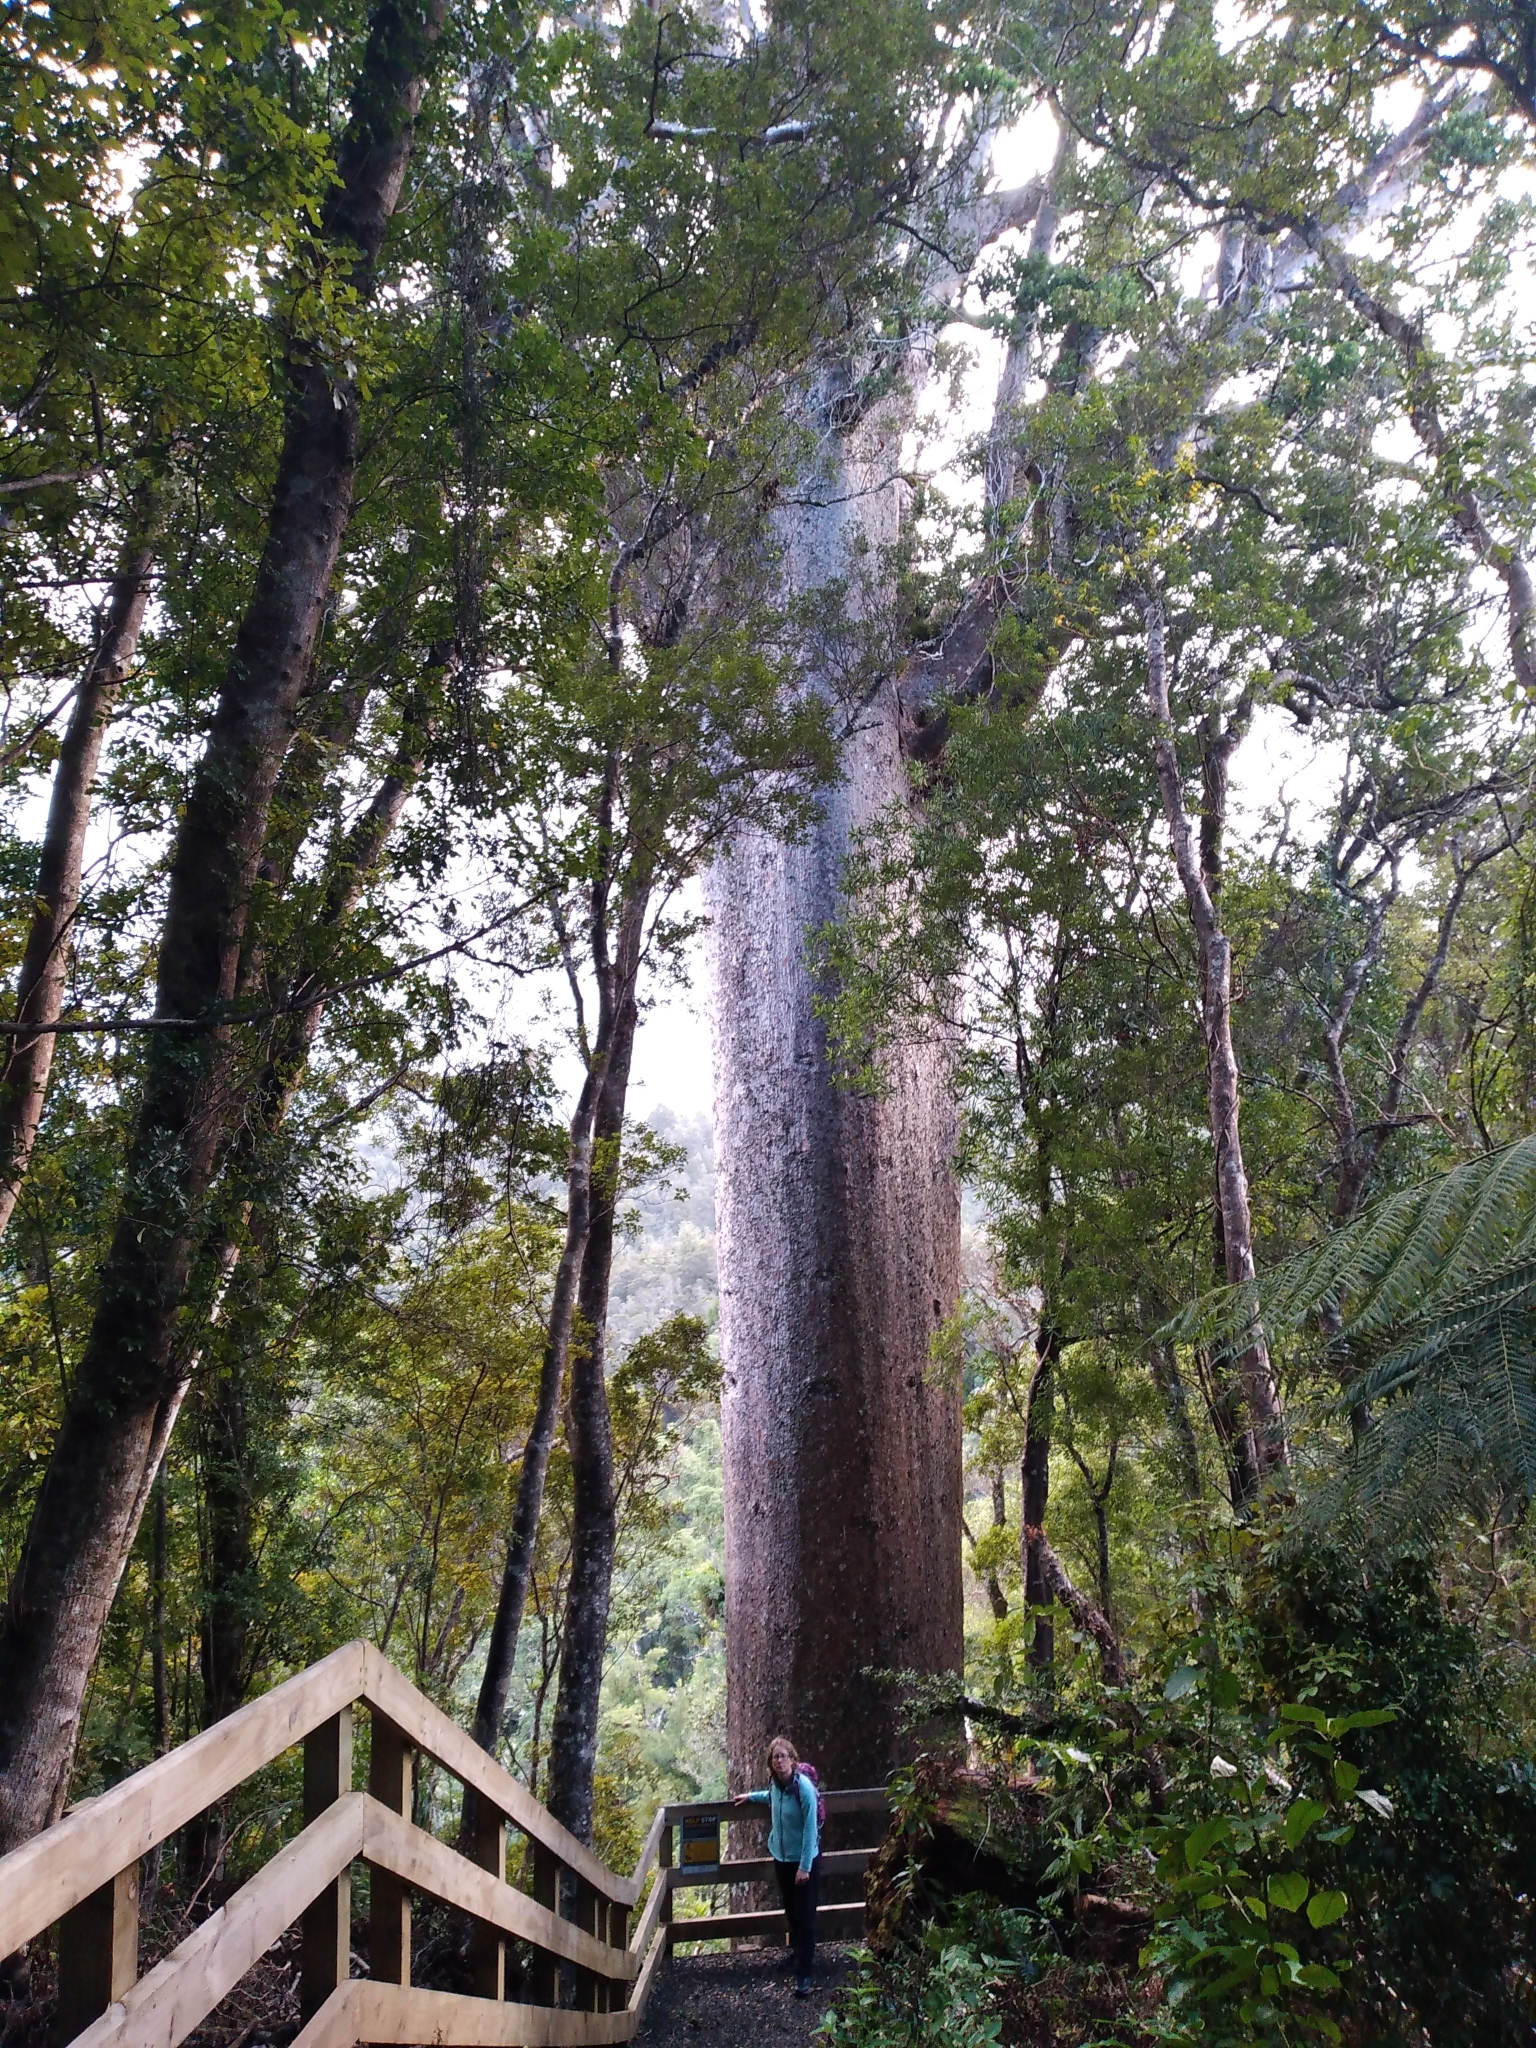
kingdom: Plantae
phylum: Tracheophyta
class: Pinopsida
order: Pinales
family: Araucariaceae
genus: Agathis
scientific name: Agathis australis
